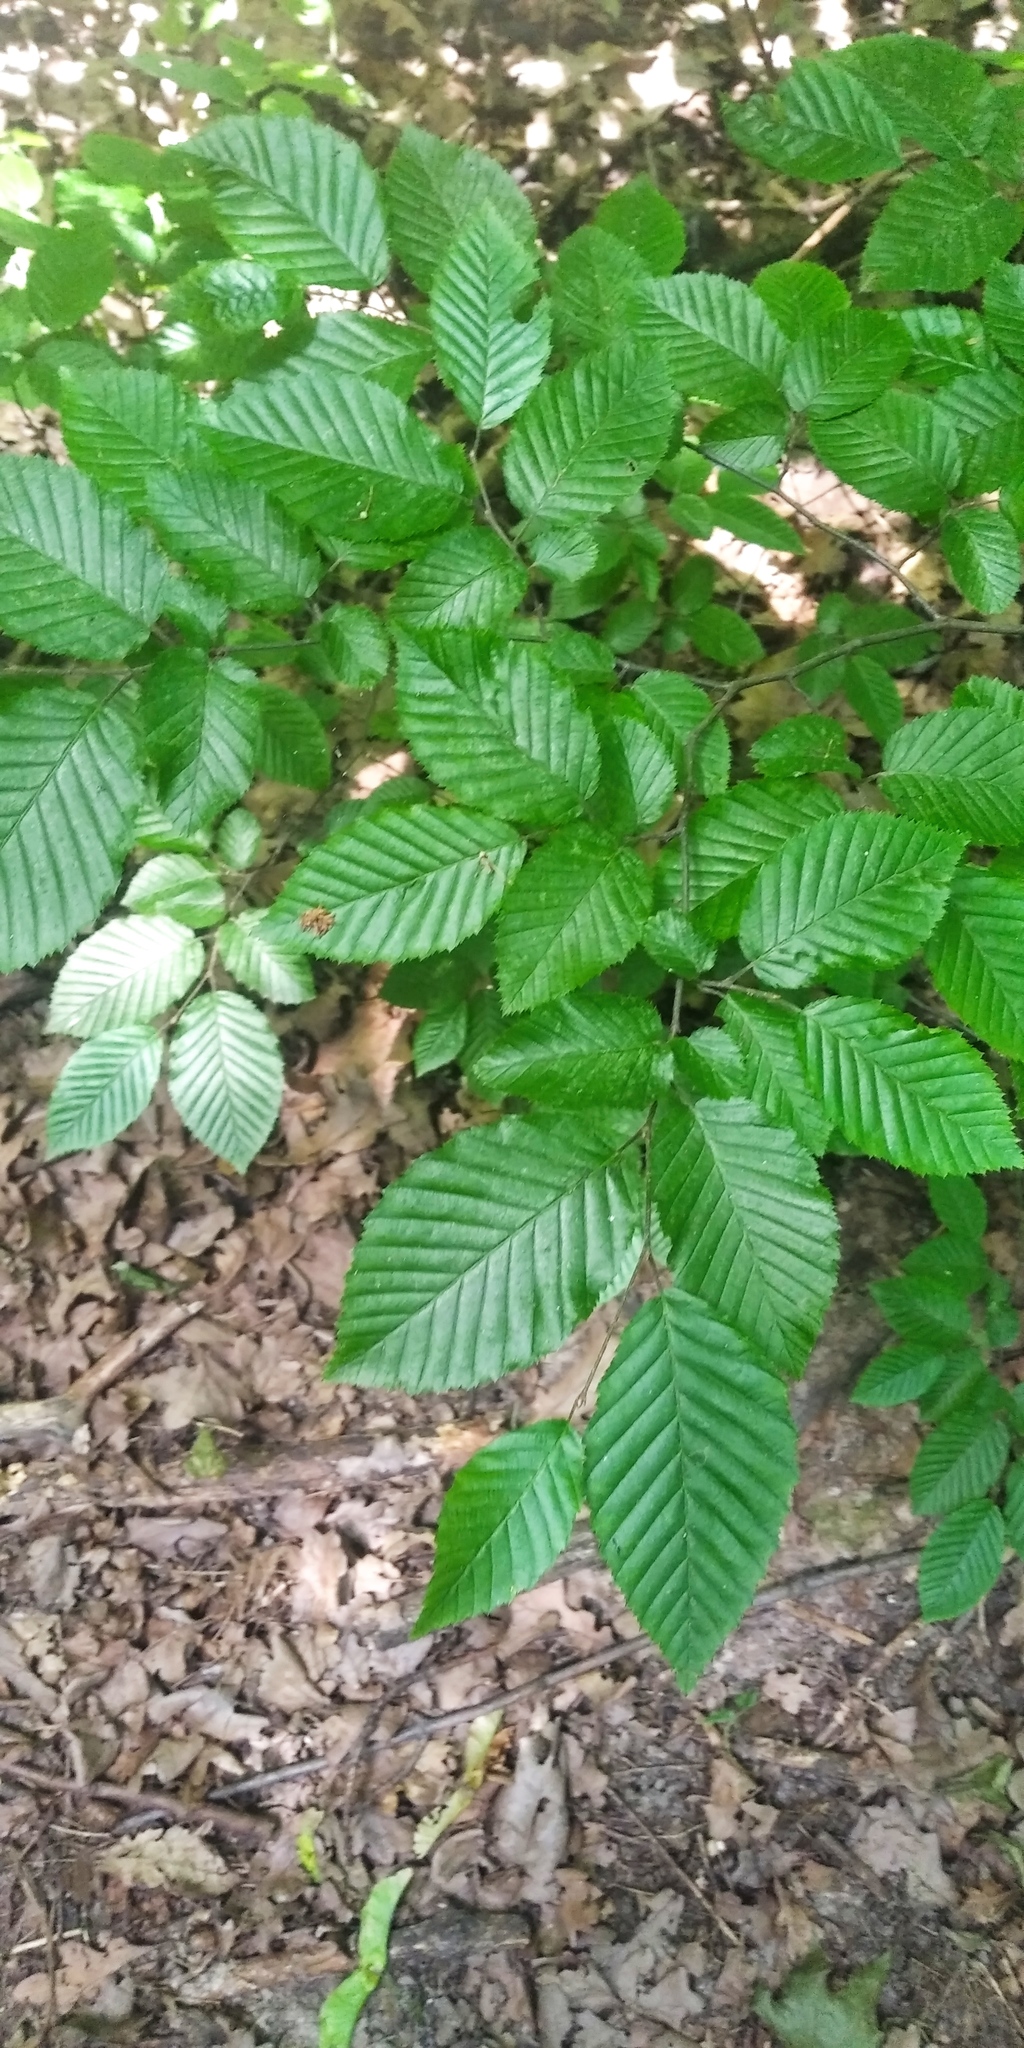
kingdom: Plantae
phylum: Tracheophyta
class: Magnoliopsida
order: Fagales
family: Betulaceae
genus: Carpinus
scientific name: Carpinus betulus
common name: Hornbeam
